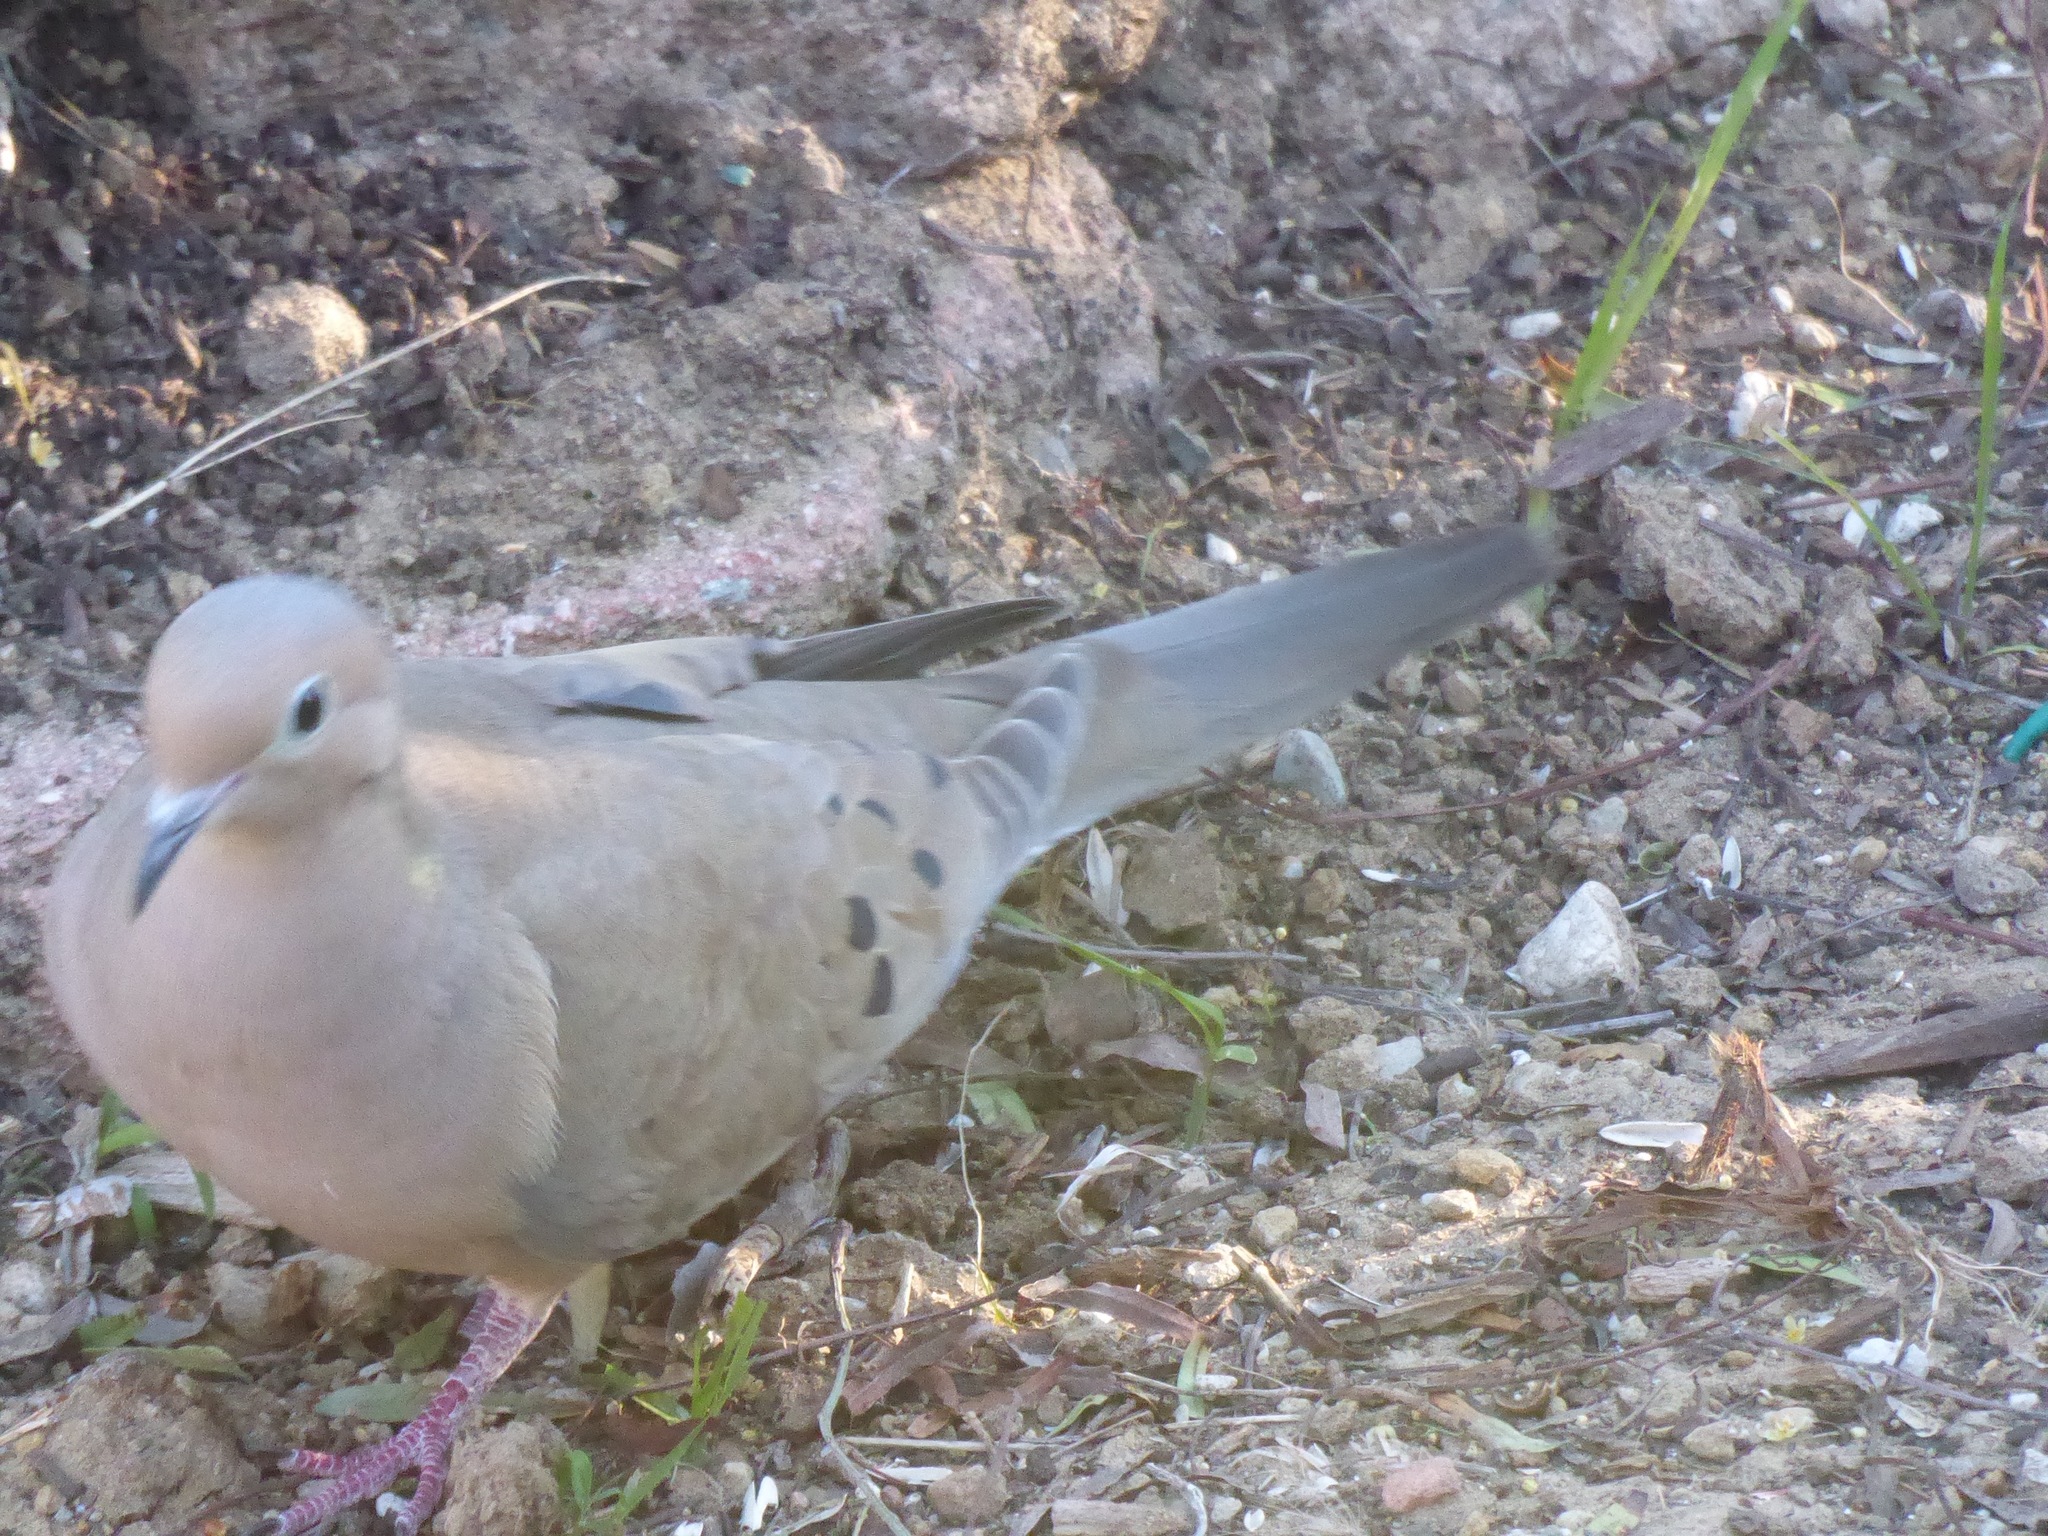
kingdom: Animalia
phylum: Chordata
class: Aves
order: Columbiformes
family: Columbidae
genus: Zenaida
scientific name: Zenaida macroura
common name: Mourning dove
